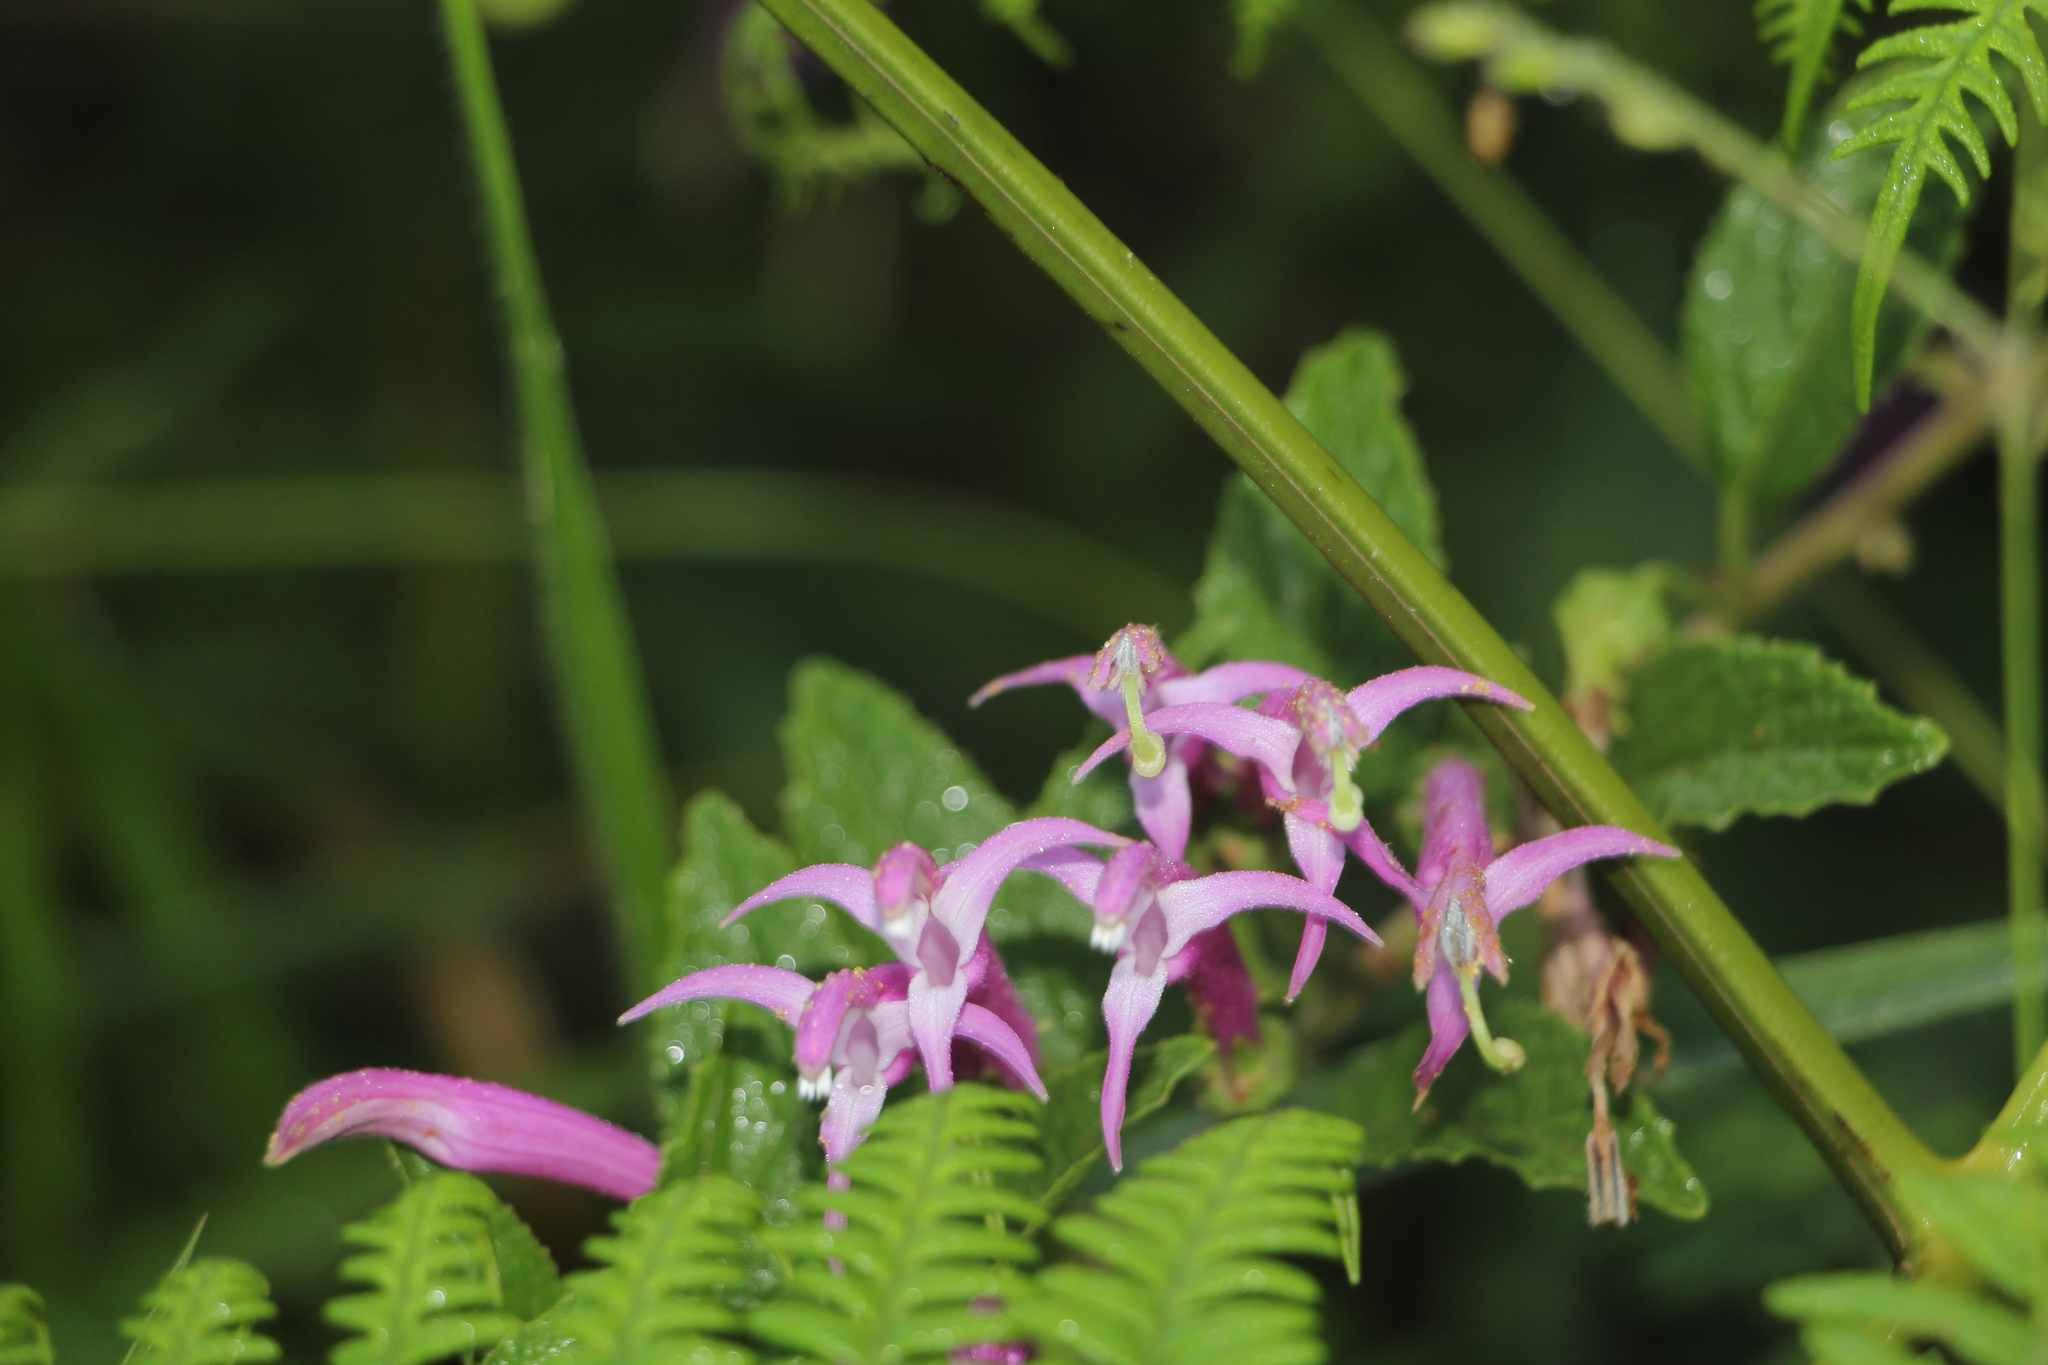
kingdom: Plantae
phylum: Tracheophyta
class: Magnoliopsida
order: Asterales
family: Campanulaceae
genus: Siphocampylus
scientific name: Siphocampylus denticulosus
